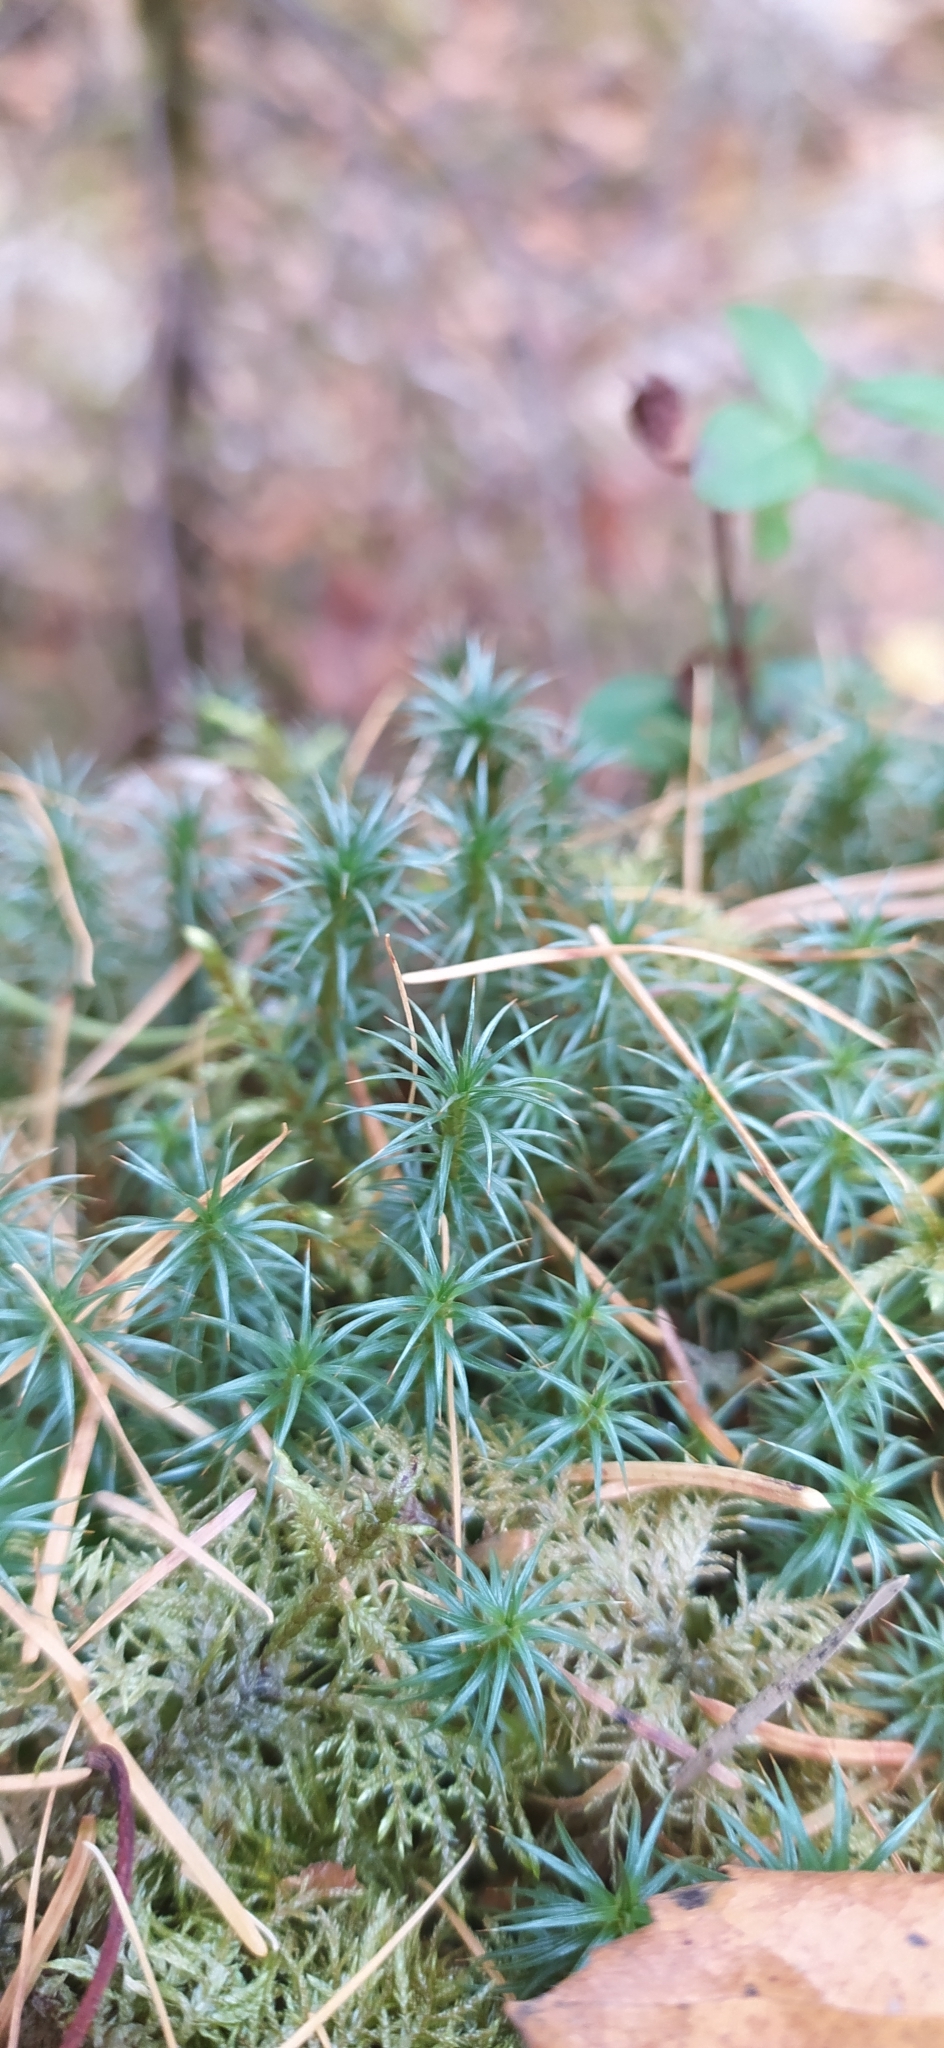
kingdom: Plantae
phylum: Bryophyta
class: Polytrichopsida
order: Polytrichales
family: Polytrichaceae
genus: Polytrichum
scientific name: Polytrichum juniperinum
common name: Juniper haircap moss
